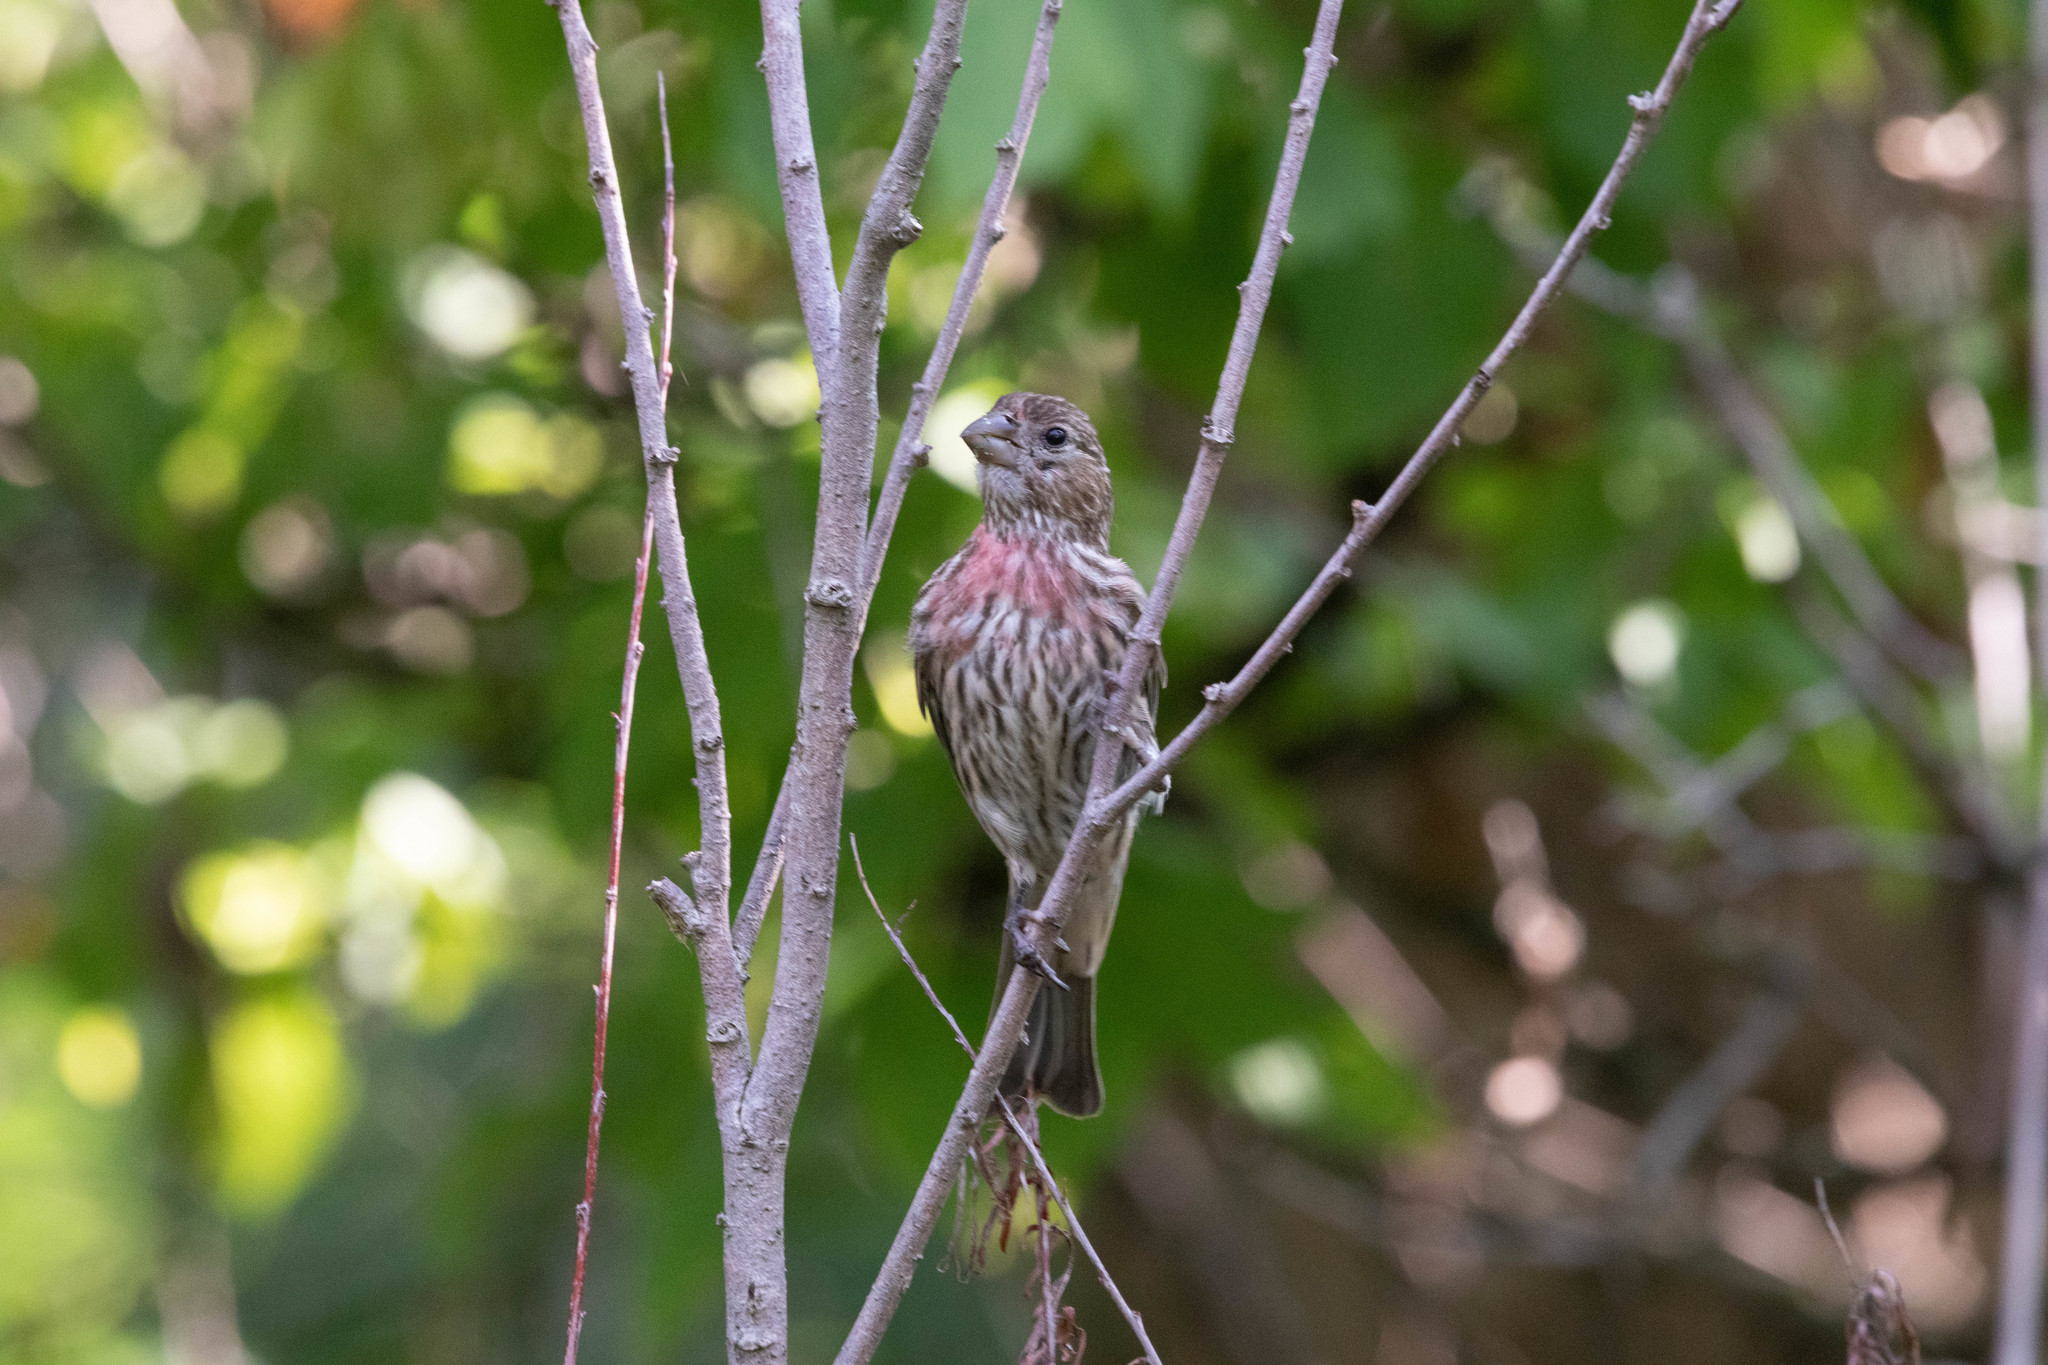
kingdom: Animalia
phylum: Chordata
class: Aves
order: Passeriformes
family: Fringillidae
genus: Haemorhous
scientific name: Haemorhous mexicanus
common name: House finch
